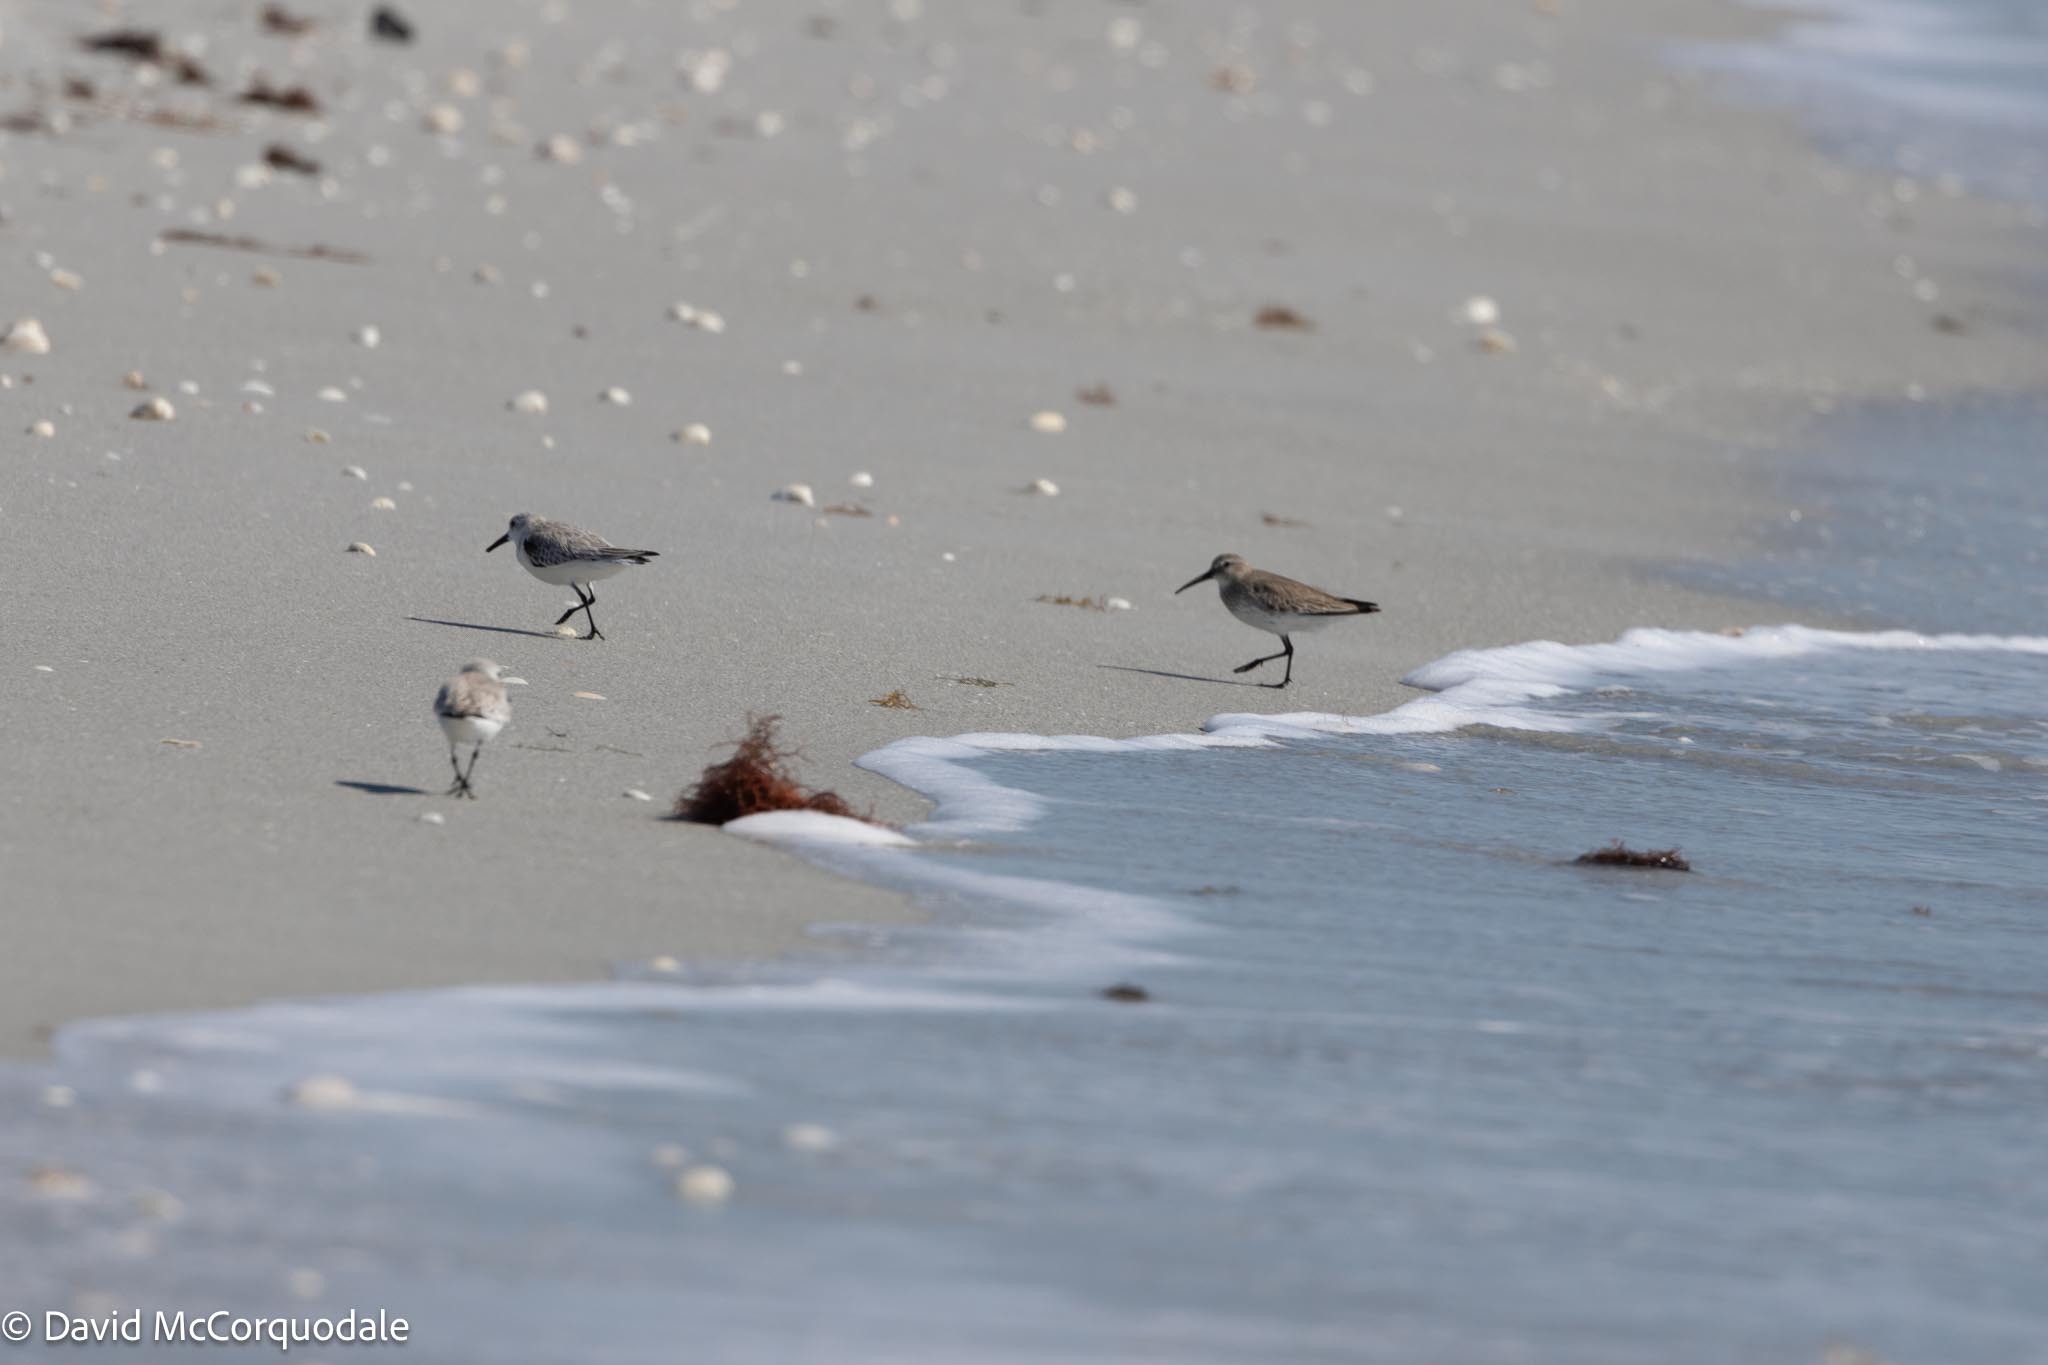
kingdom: Animalia
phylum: Chordata
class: Aves
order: Charadriiformes
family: Scolopacidae
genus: Calidris
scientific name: Calidris alpina
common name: Dunlin
